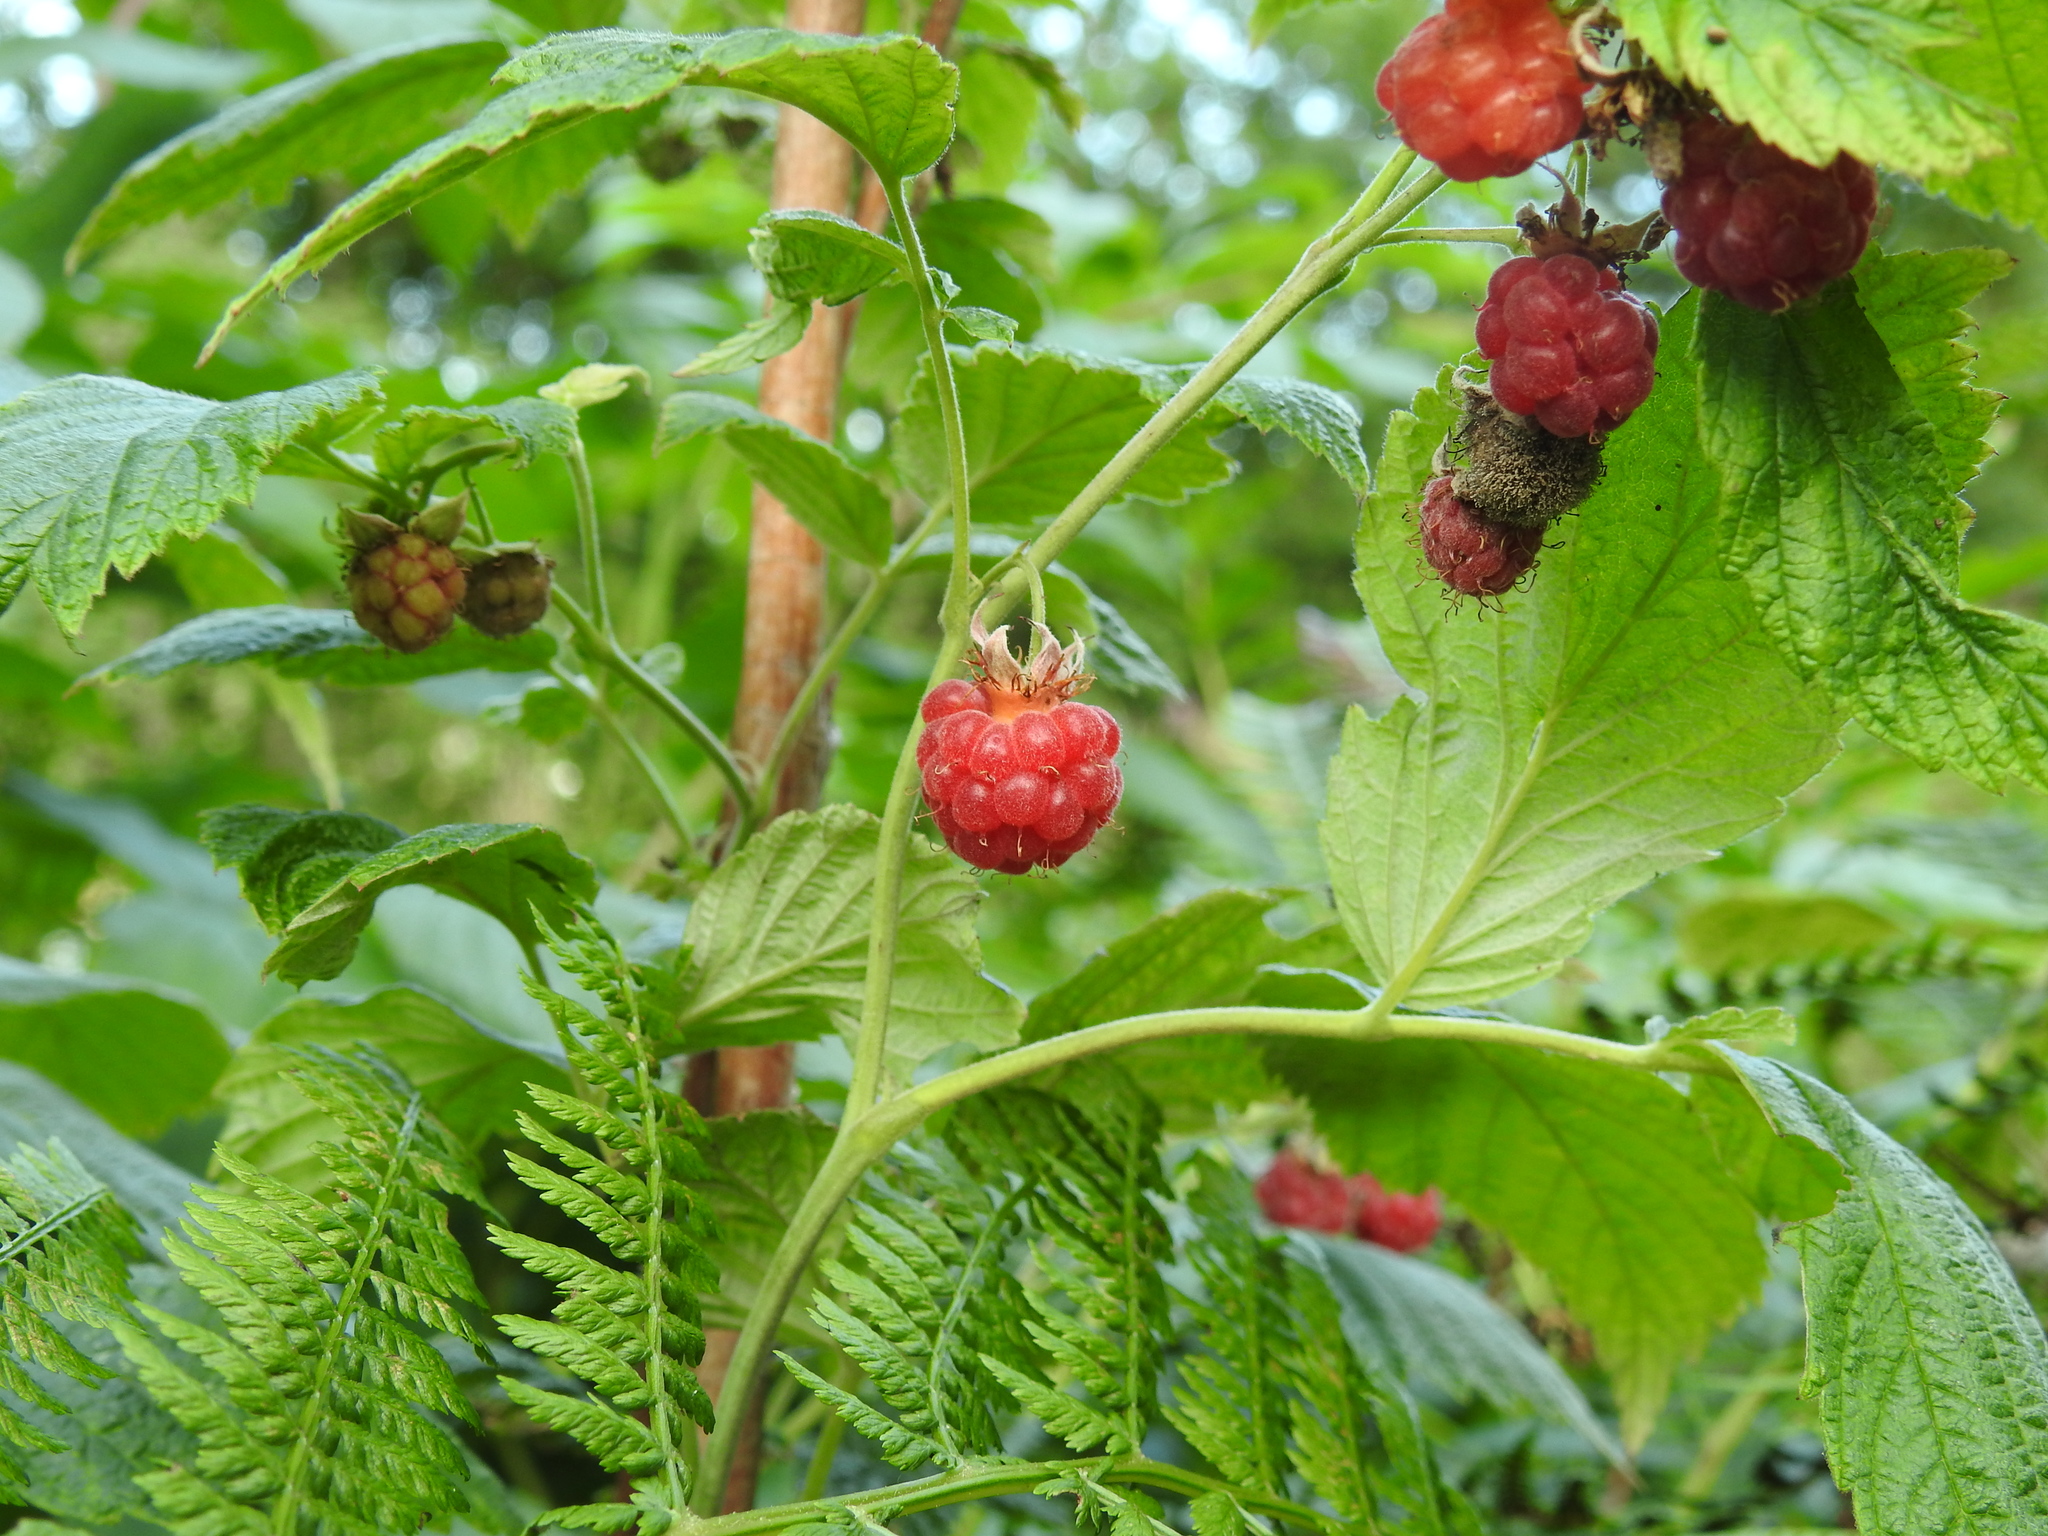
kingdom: Plantae
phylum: Tracheophyta
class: Magnoliopsida
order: Rosales
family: Rosaceae
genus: Rubus
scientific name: Rubus idaeus
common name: Raspberry
